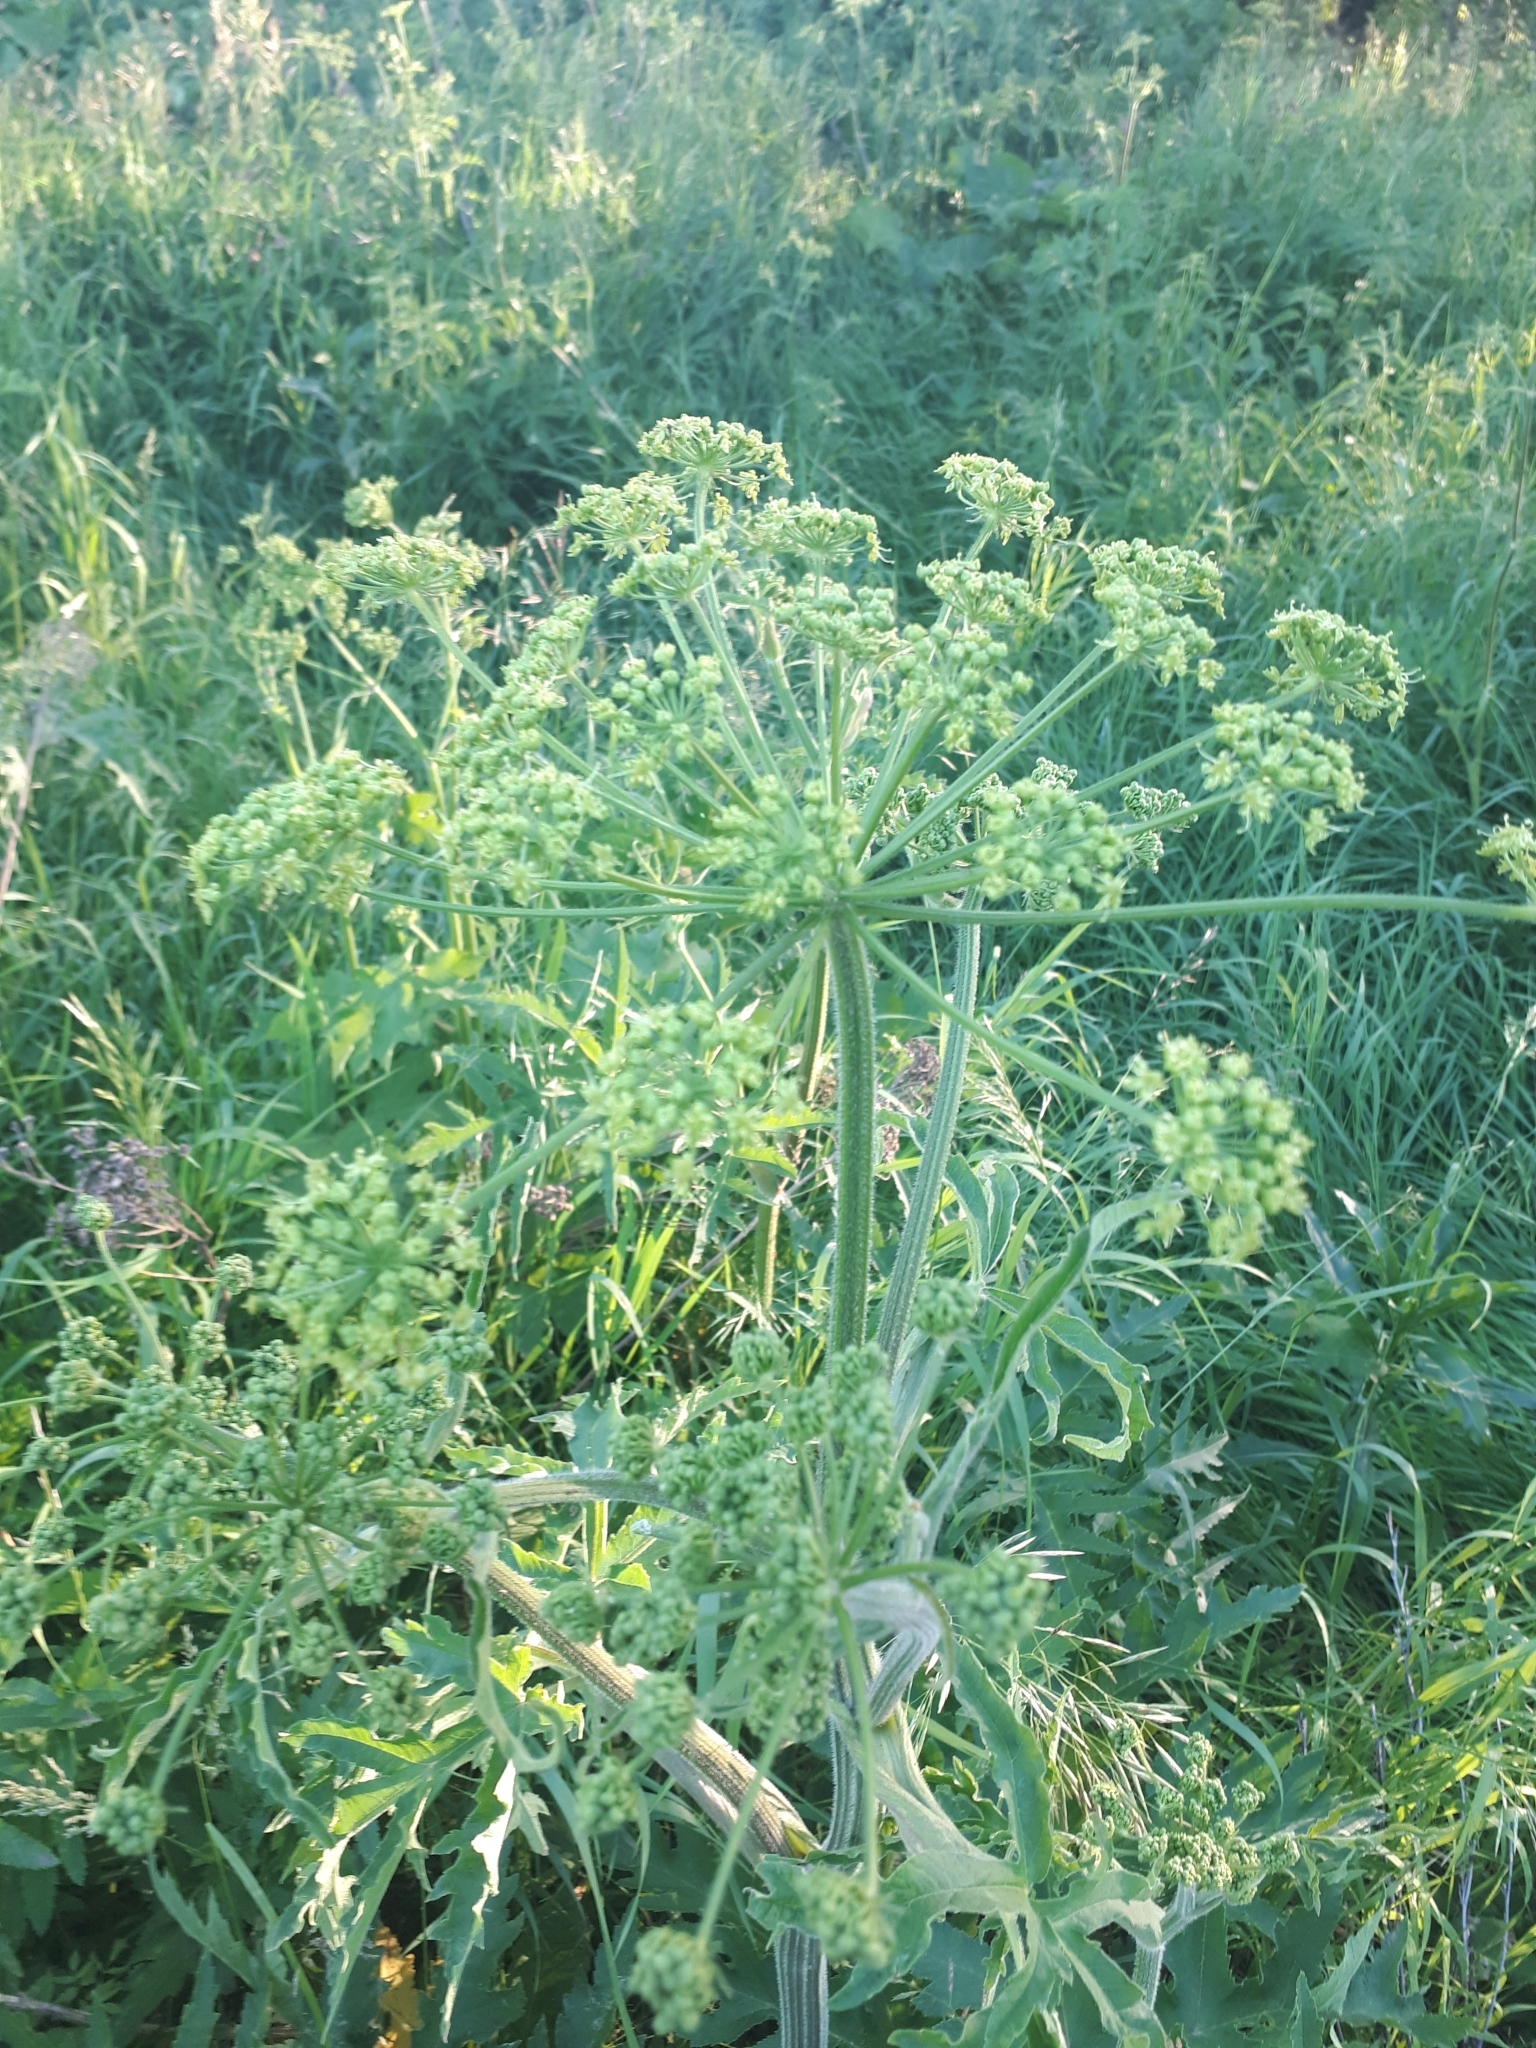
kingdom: Plantae
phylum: Tracheophyta
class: Magnoliopsida
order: Apiales
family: Apiaceae
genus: Heracleum
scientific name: Heracleum sphondylium
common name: Hogweed
